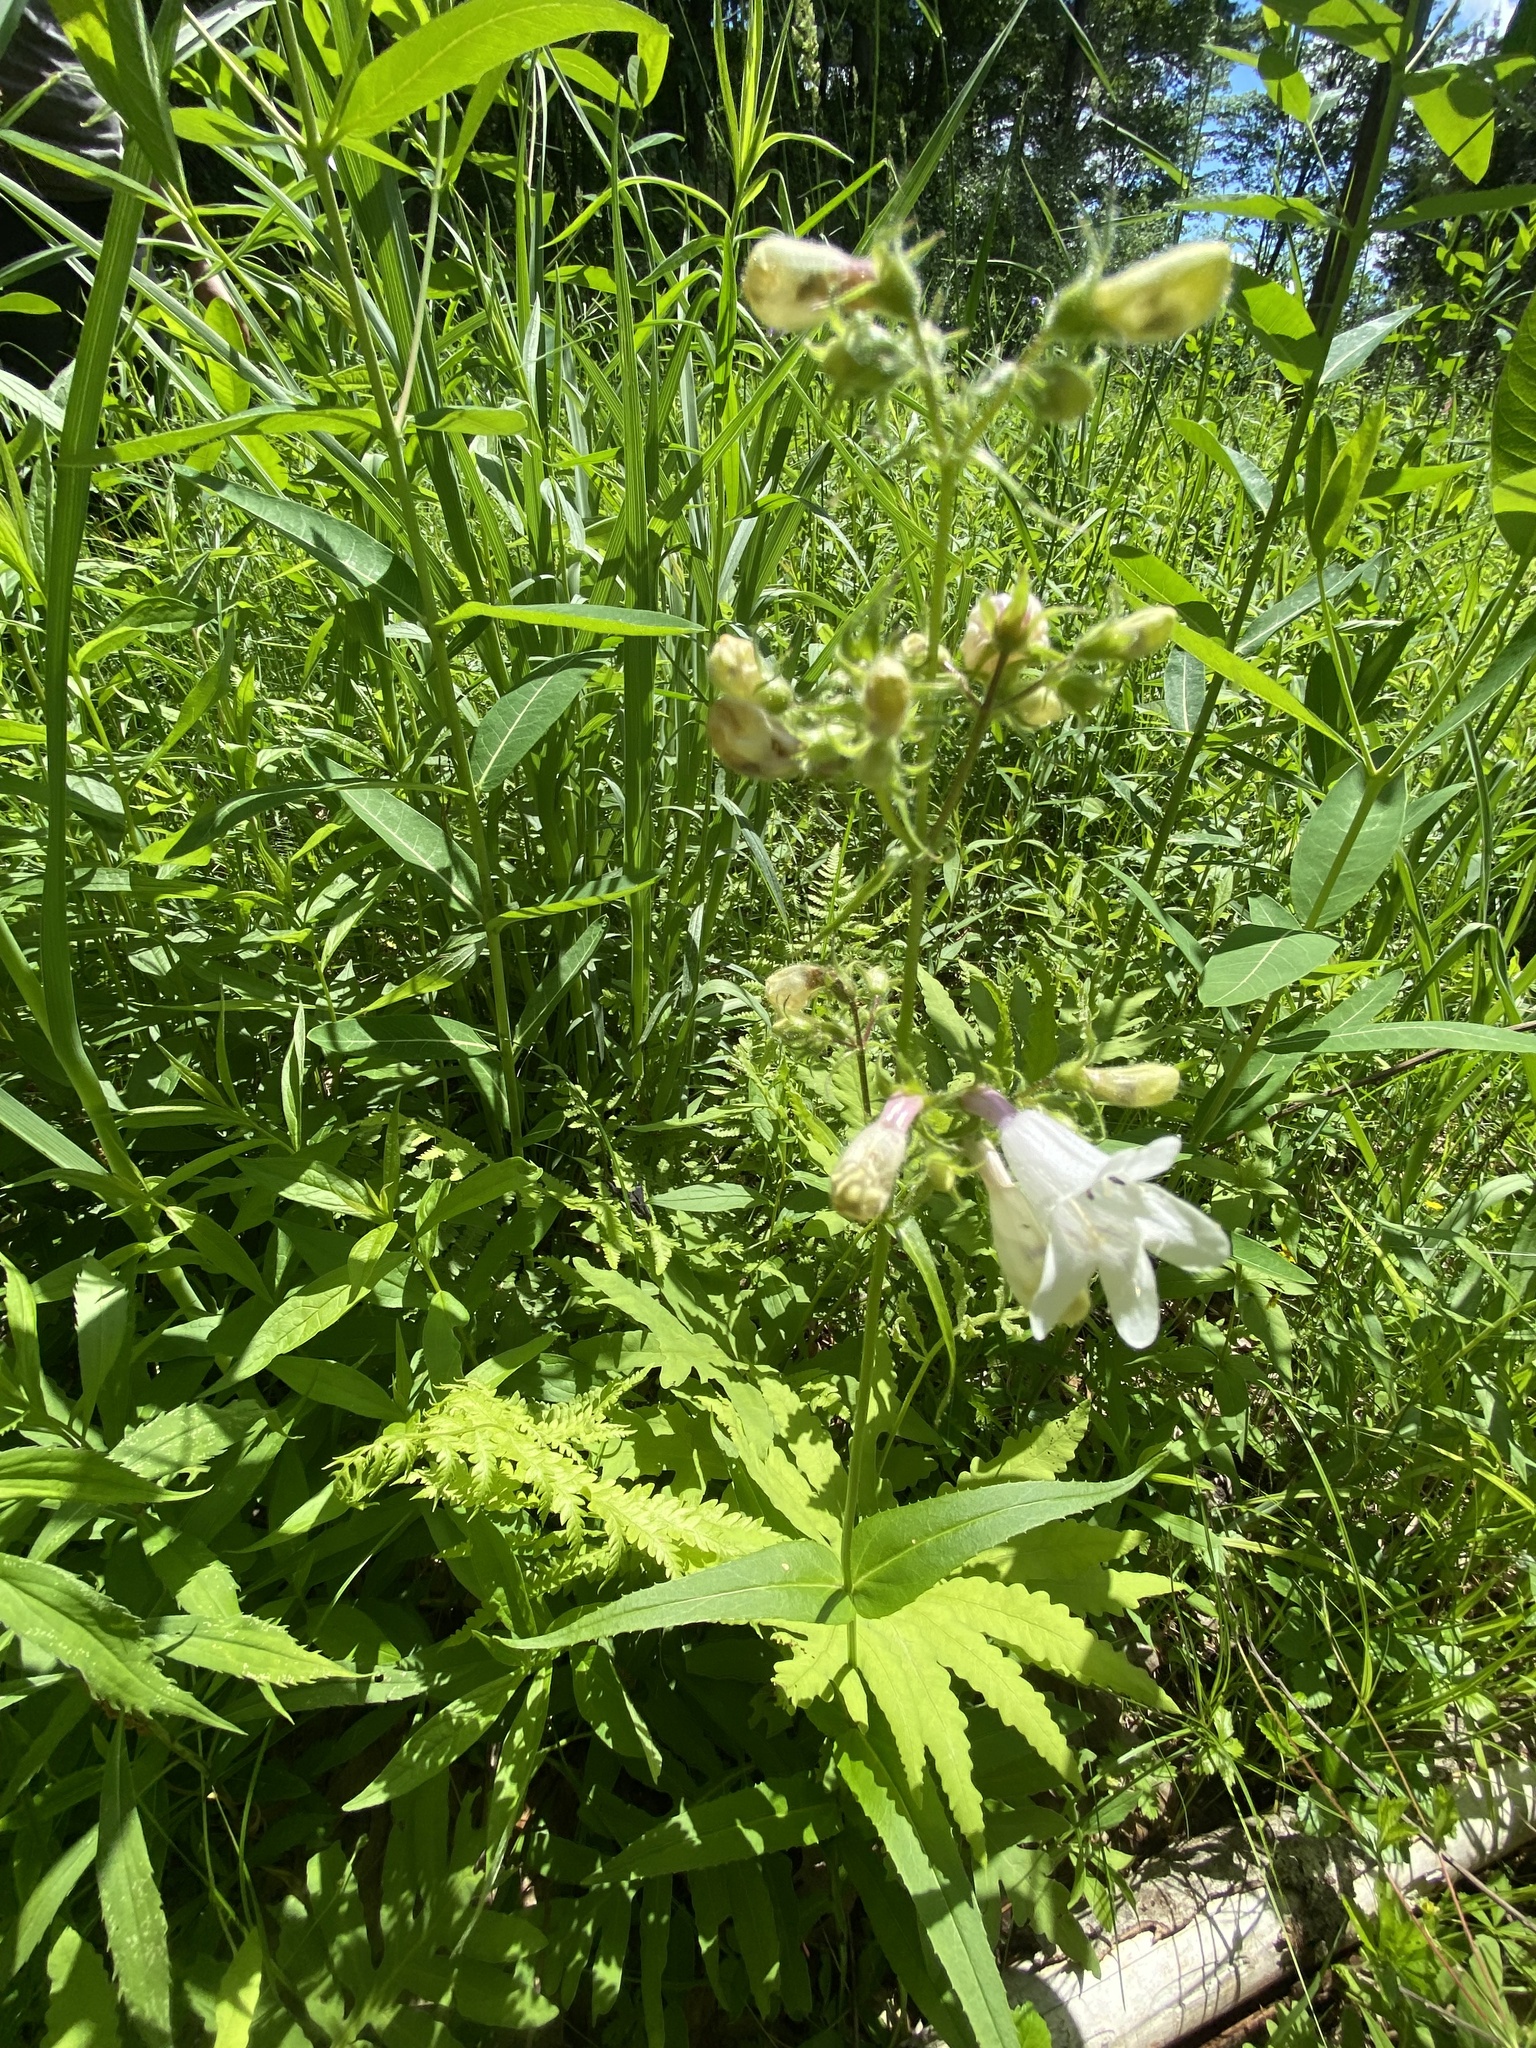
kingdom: Plantae
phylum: Tracheophyta
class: Magnoliopsida
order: Lamiales
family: Plantaginaceae
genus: Penstemon
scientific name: Penstemon digitalis
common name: Foxglove beardtongue
